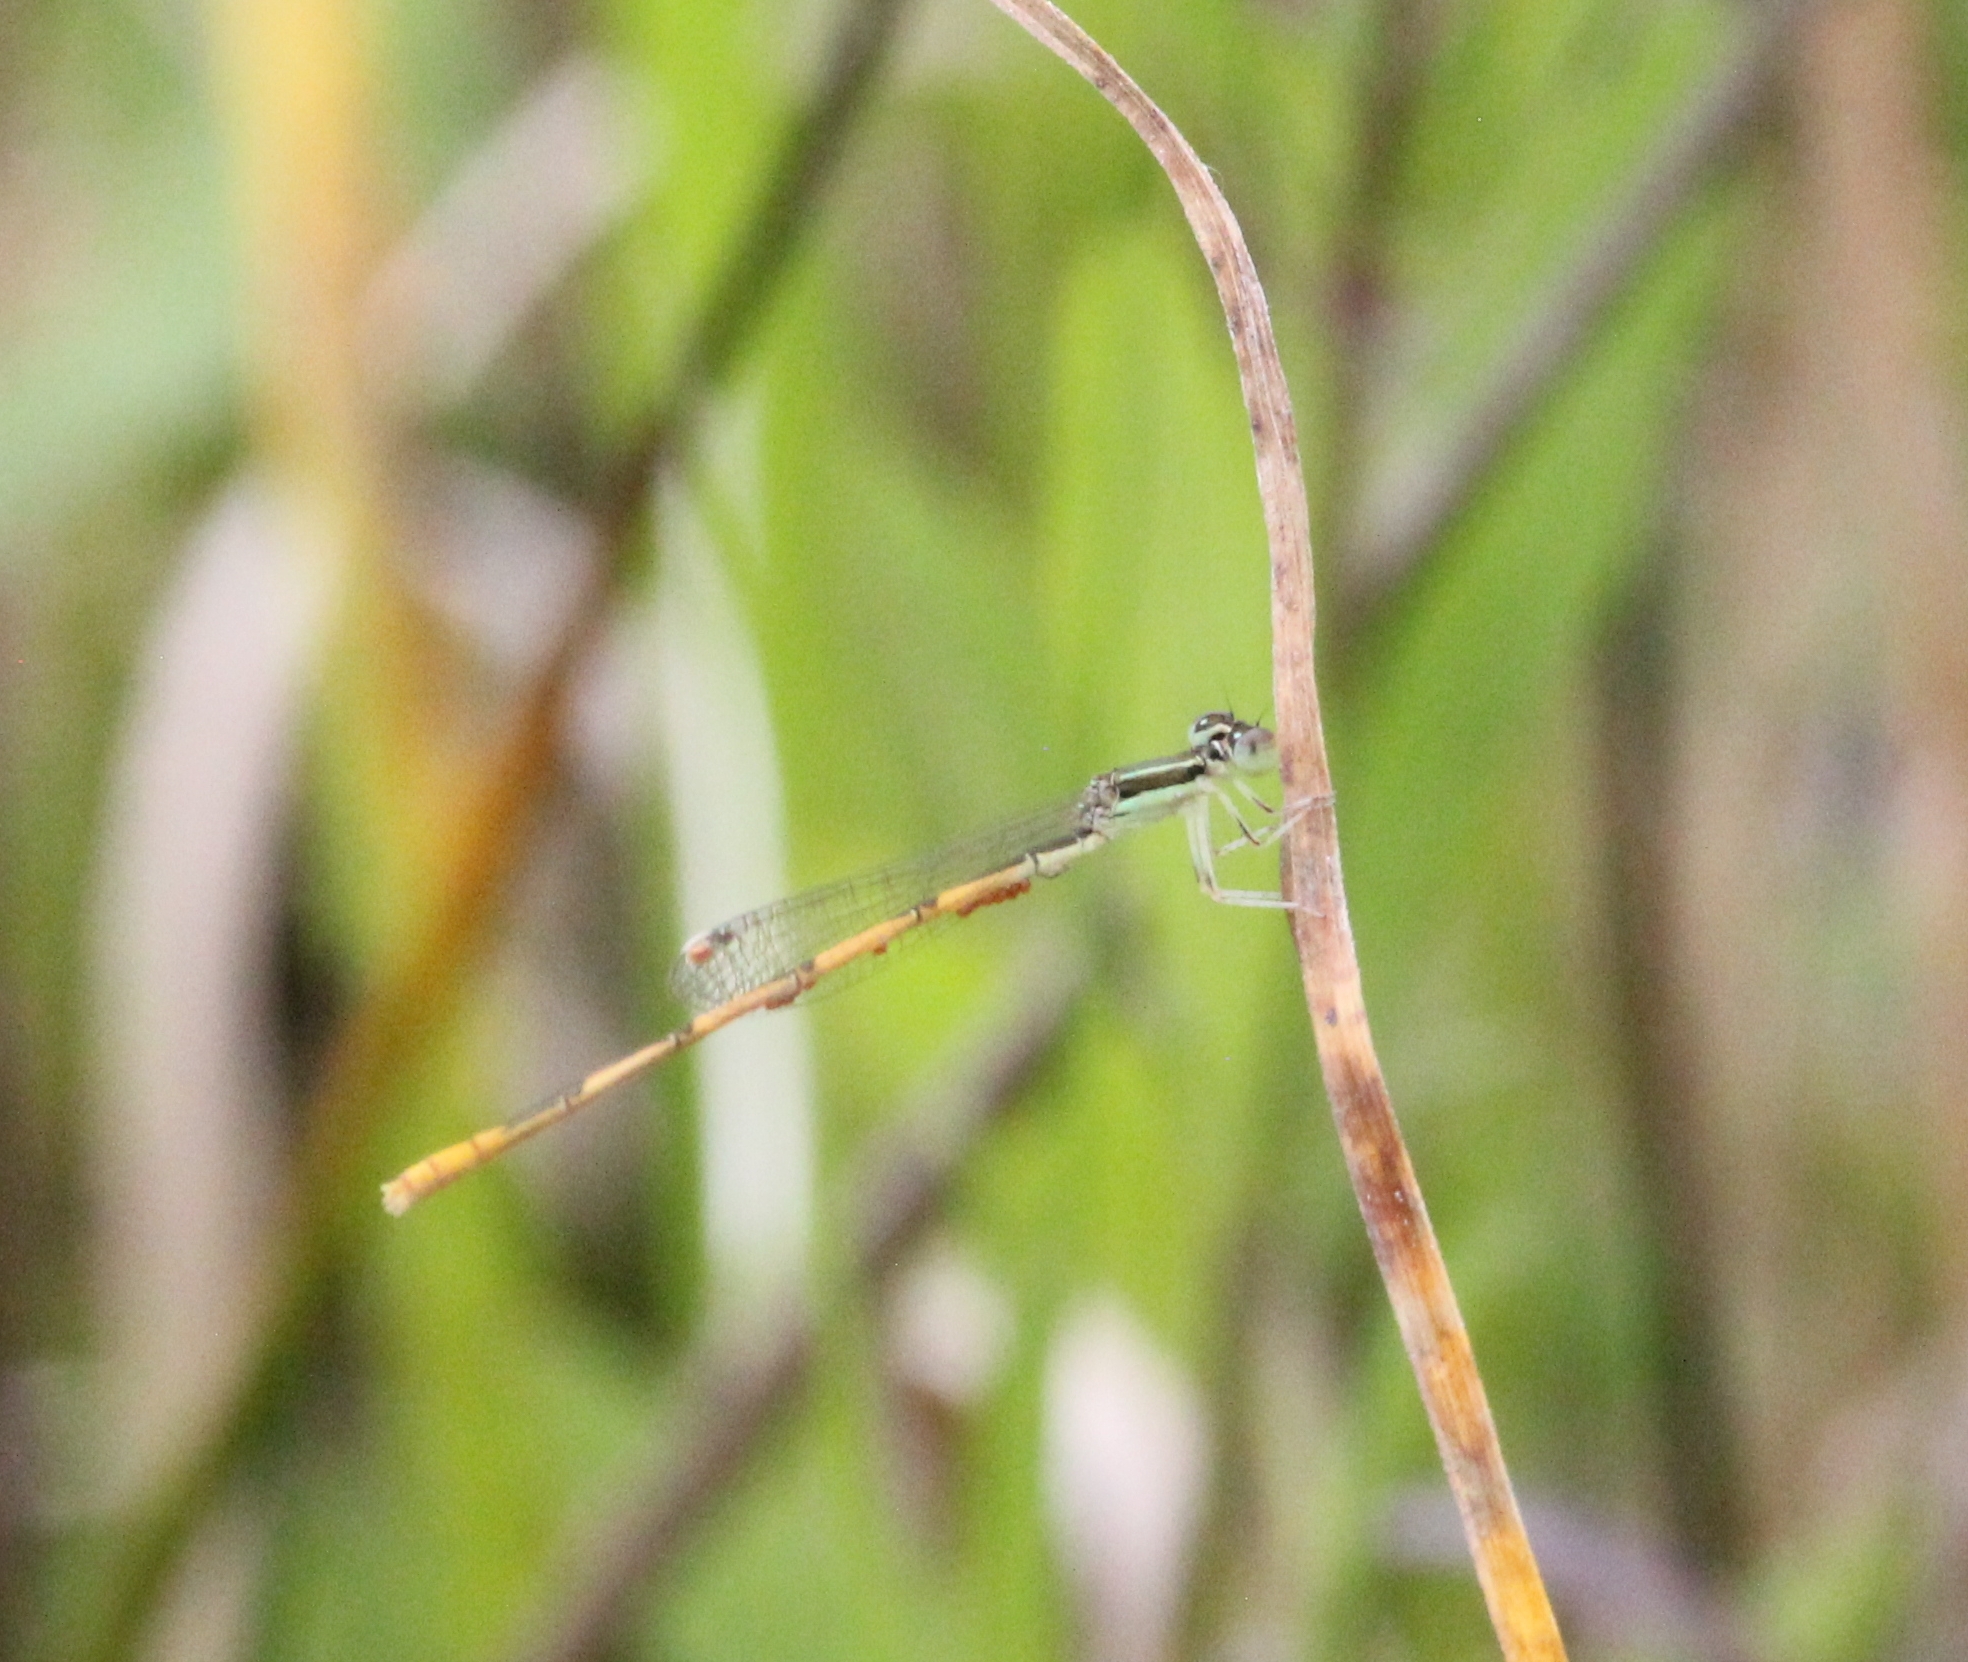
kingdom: Animalia
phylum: Arthropoda
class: Insecta
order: Odonata
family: Coenagrionidae
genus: Ischnura
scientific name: Ischnura hastata
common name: Citrine forktail
